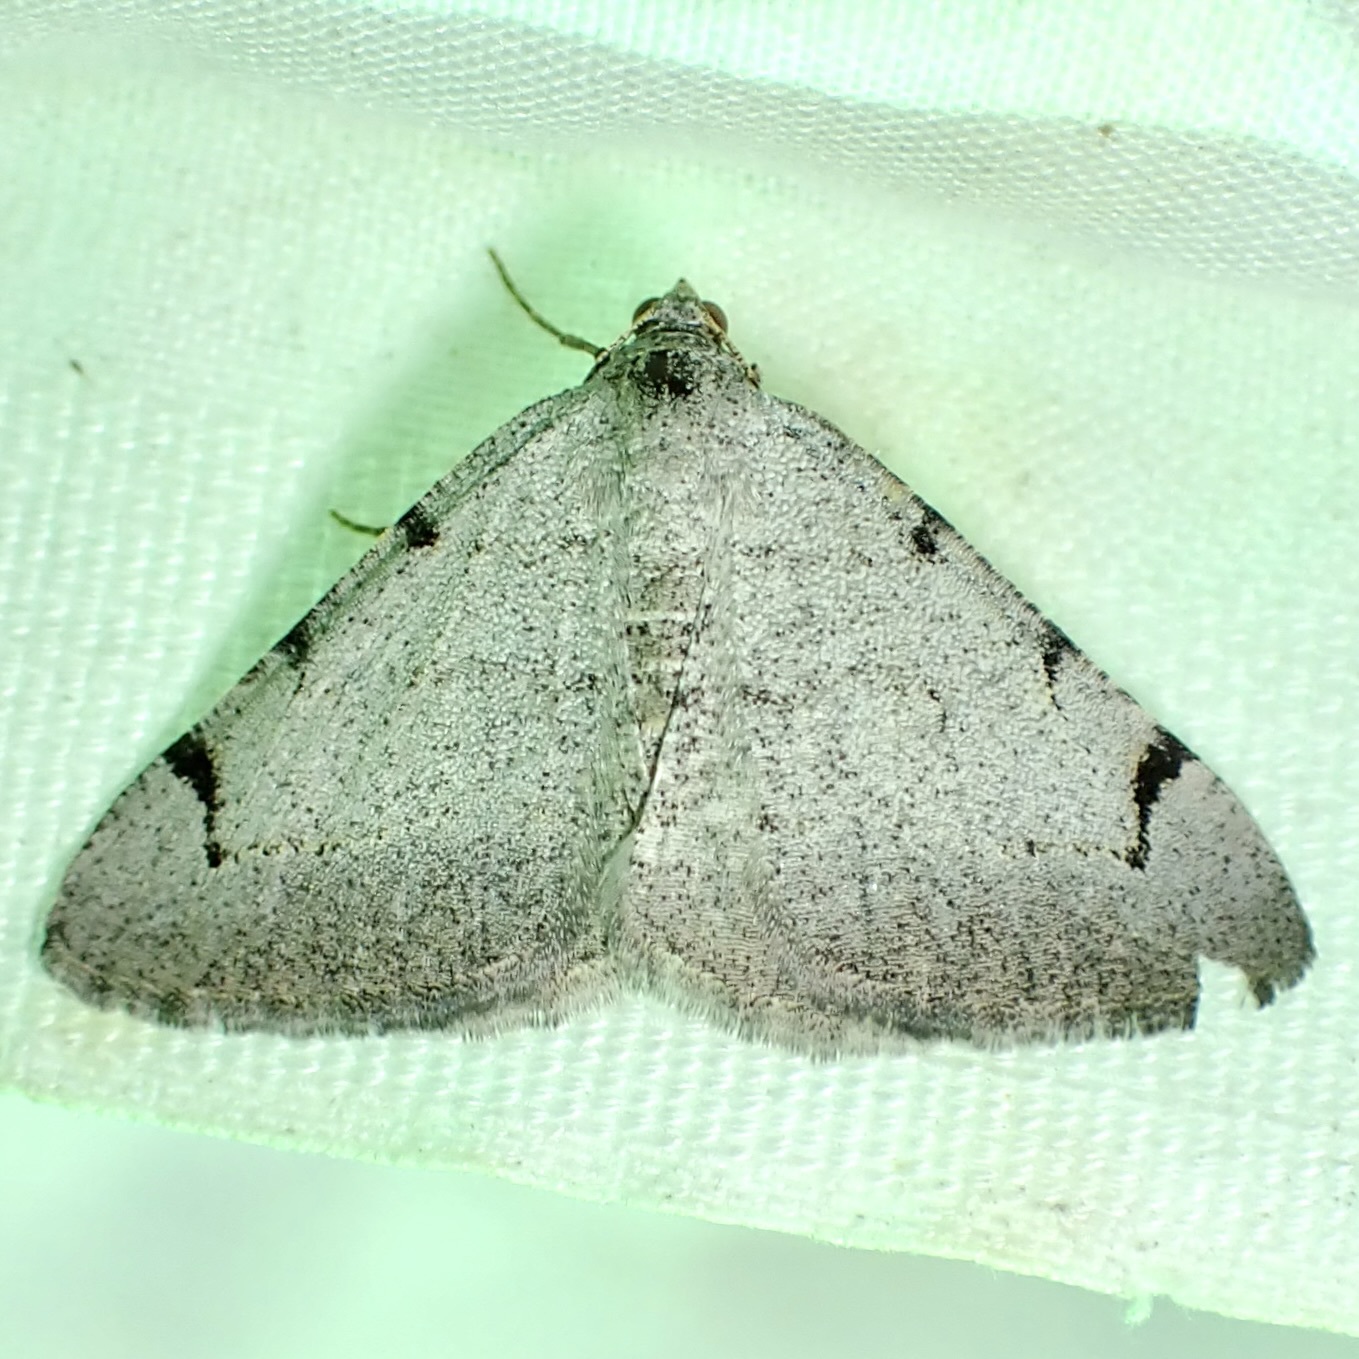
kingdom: Animalia
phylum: Arthropoda
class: Insecta
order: Lepidoptera
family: Geometridae
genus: Digrammia
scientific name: Digrammia triviata
